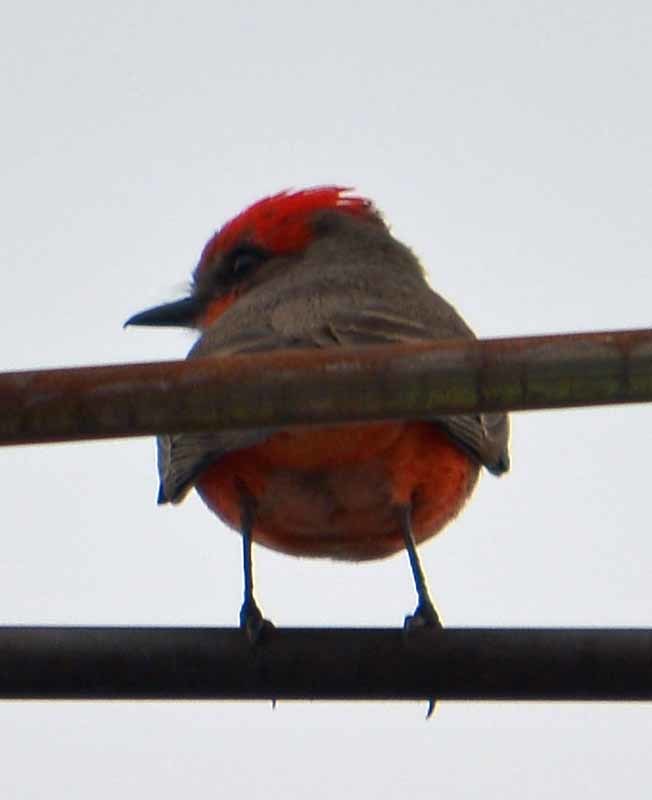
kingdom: Animalia
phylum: Chordata
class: Aves
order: Passeriformes
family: Tyrannidae
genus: Pyrocephalus
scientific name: Pyrocephalus rubinus
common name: Vermilion flycatcher
